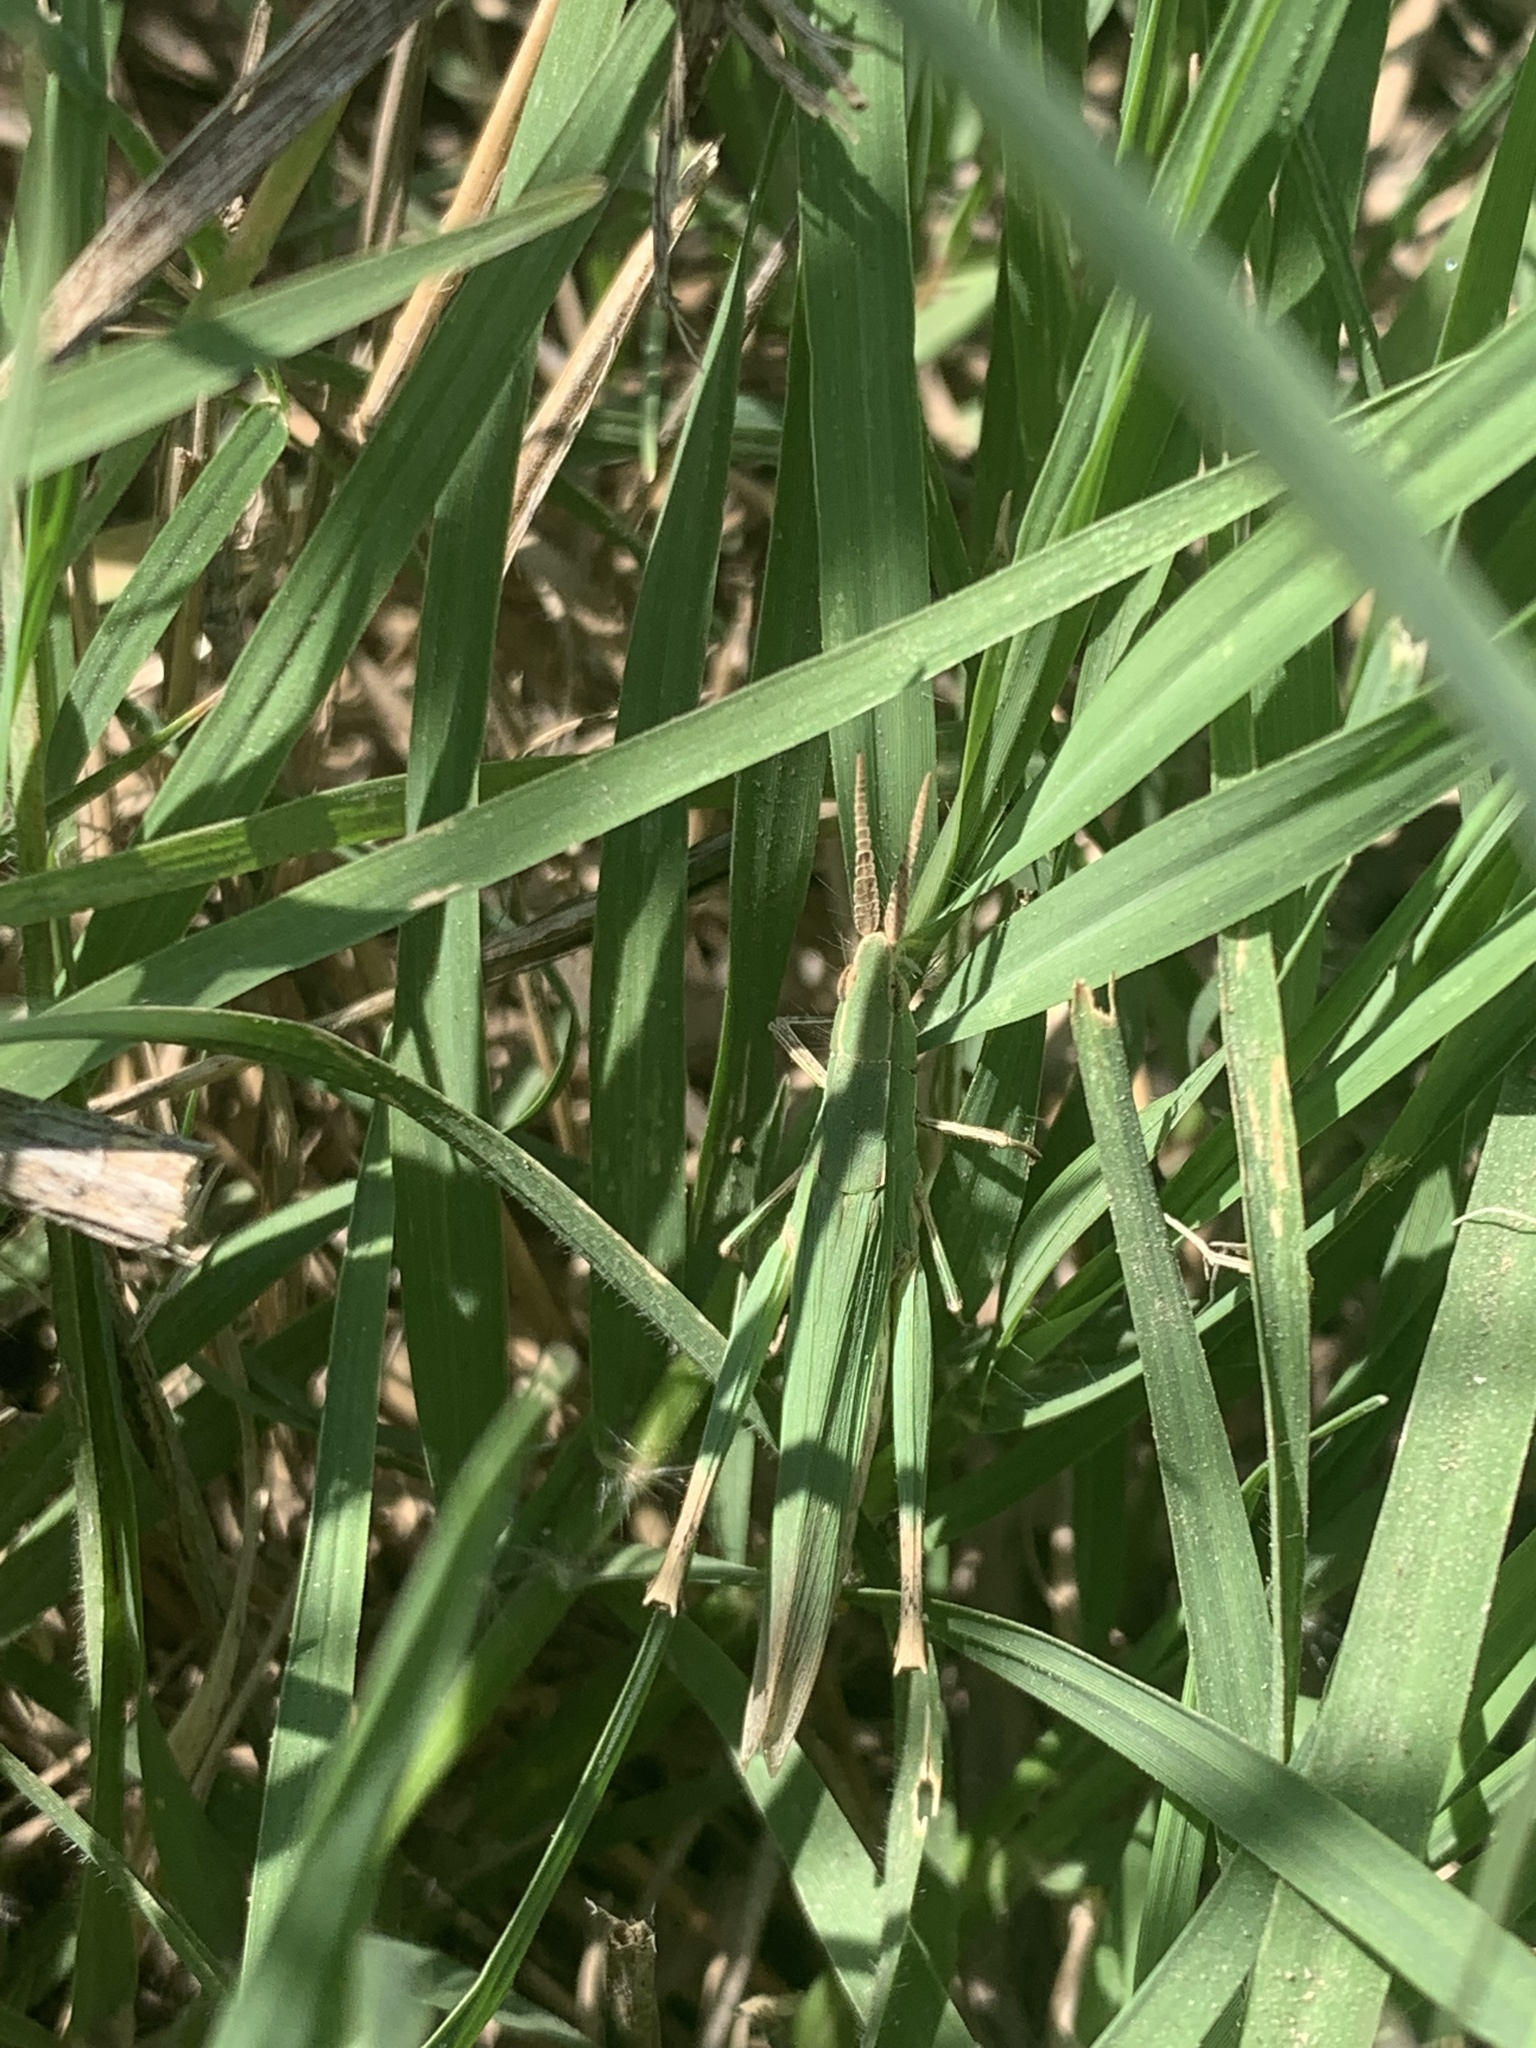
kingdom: Animalia
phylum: Arthropoda
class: Insecta
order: Orthoptera
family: Acrididae
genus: Allotruxalis
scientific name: Allotruxalis gracilis
